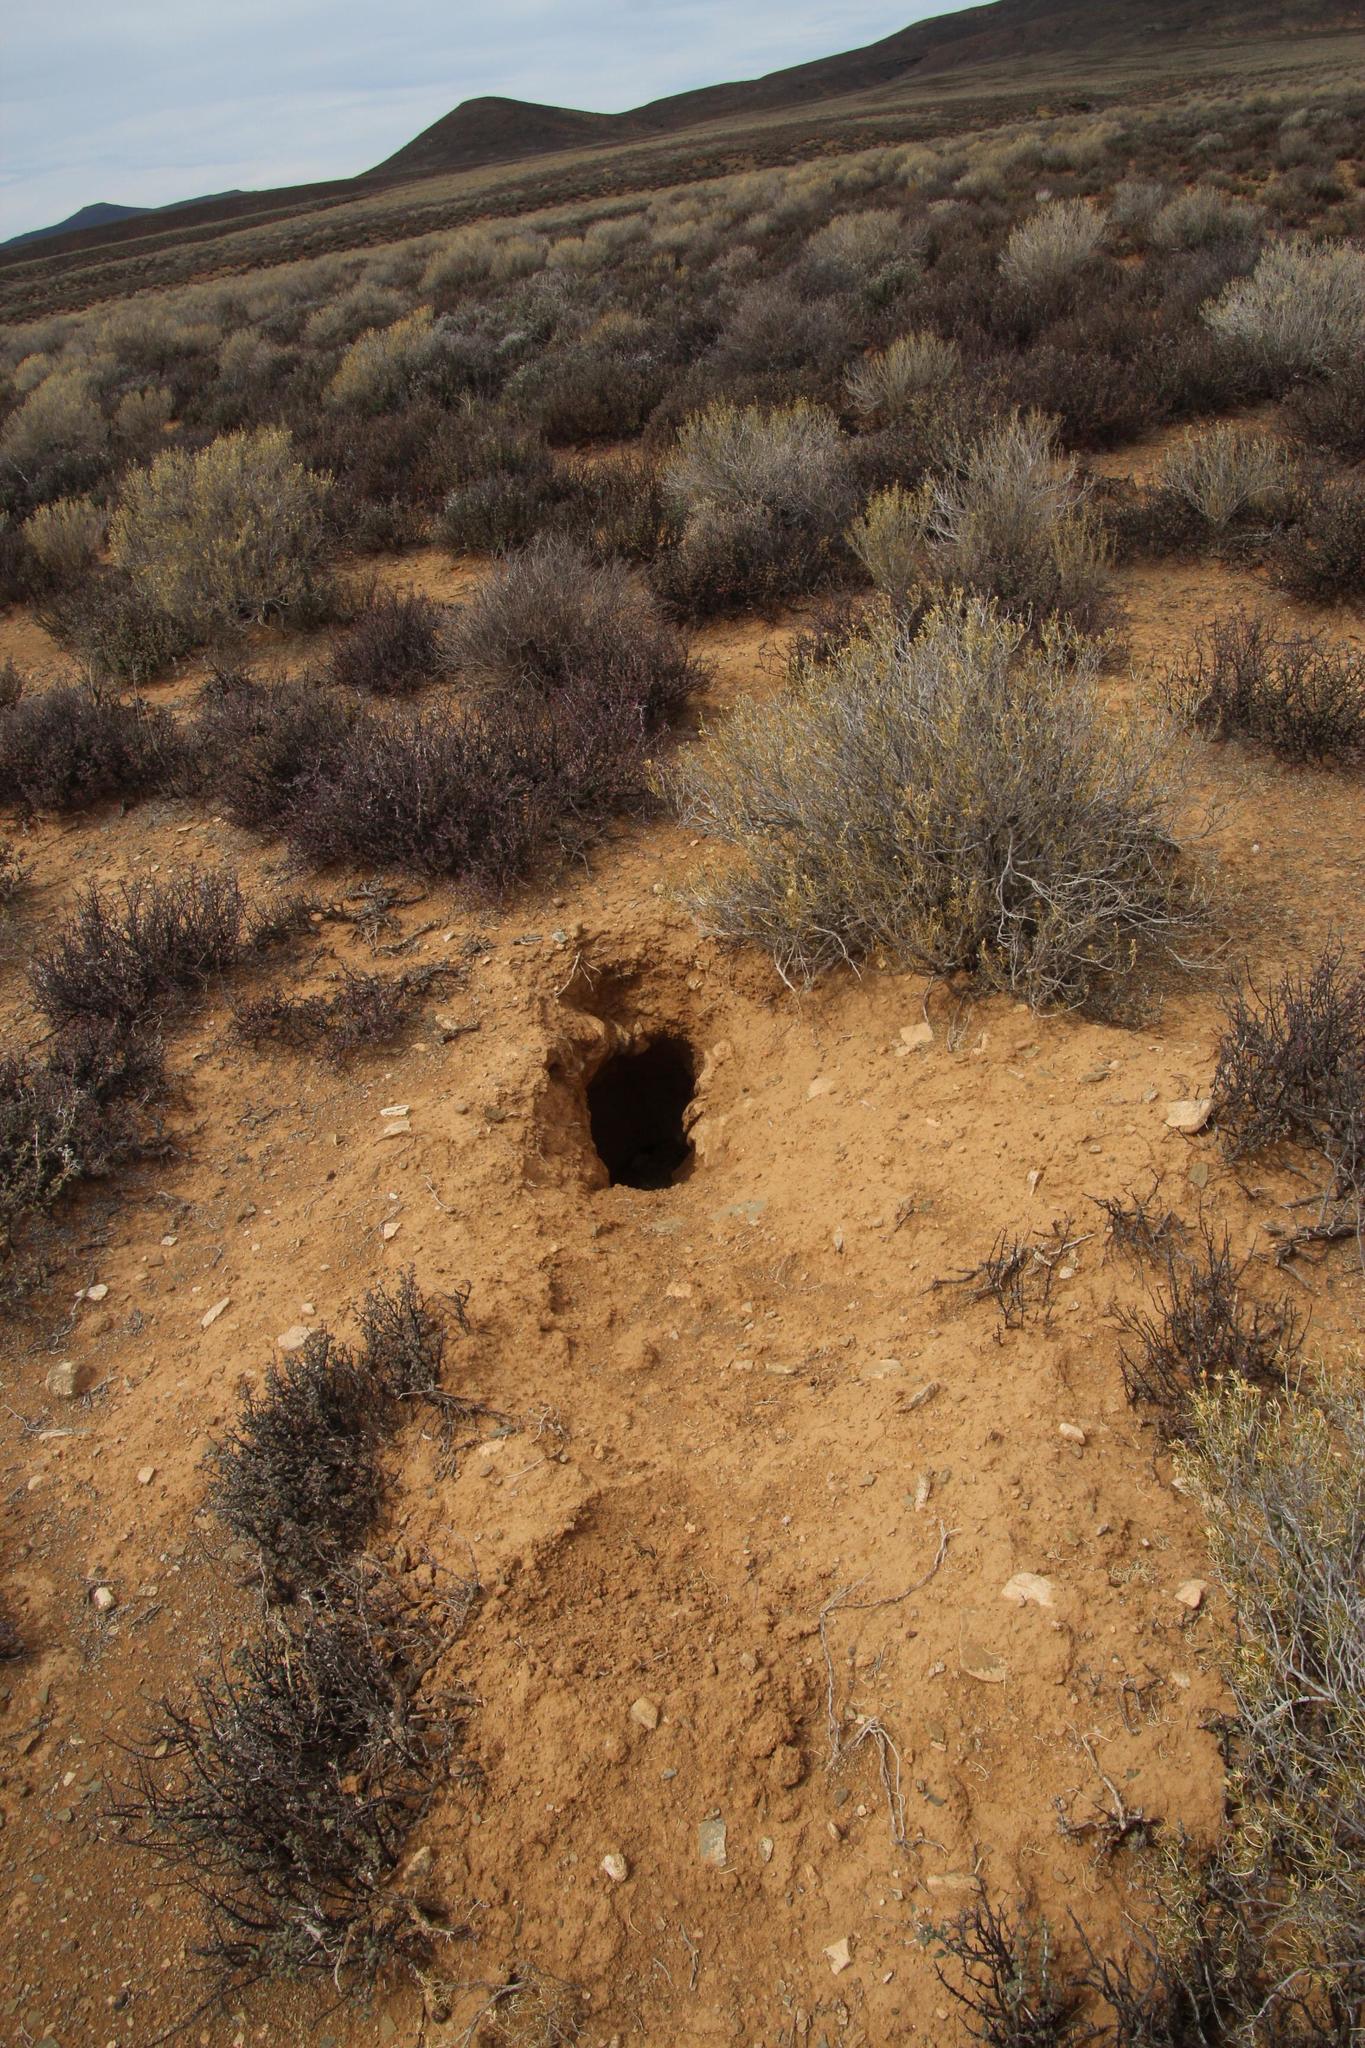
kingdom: Animalia
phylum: Chordata
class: Mammalia
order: Tubulidentata
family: Orycteropodidae
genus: Orycteropus
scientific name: Orycteropus afer
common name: Aardvark
